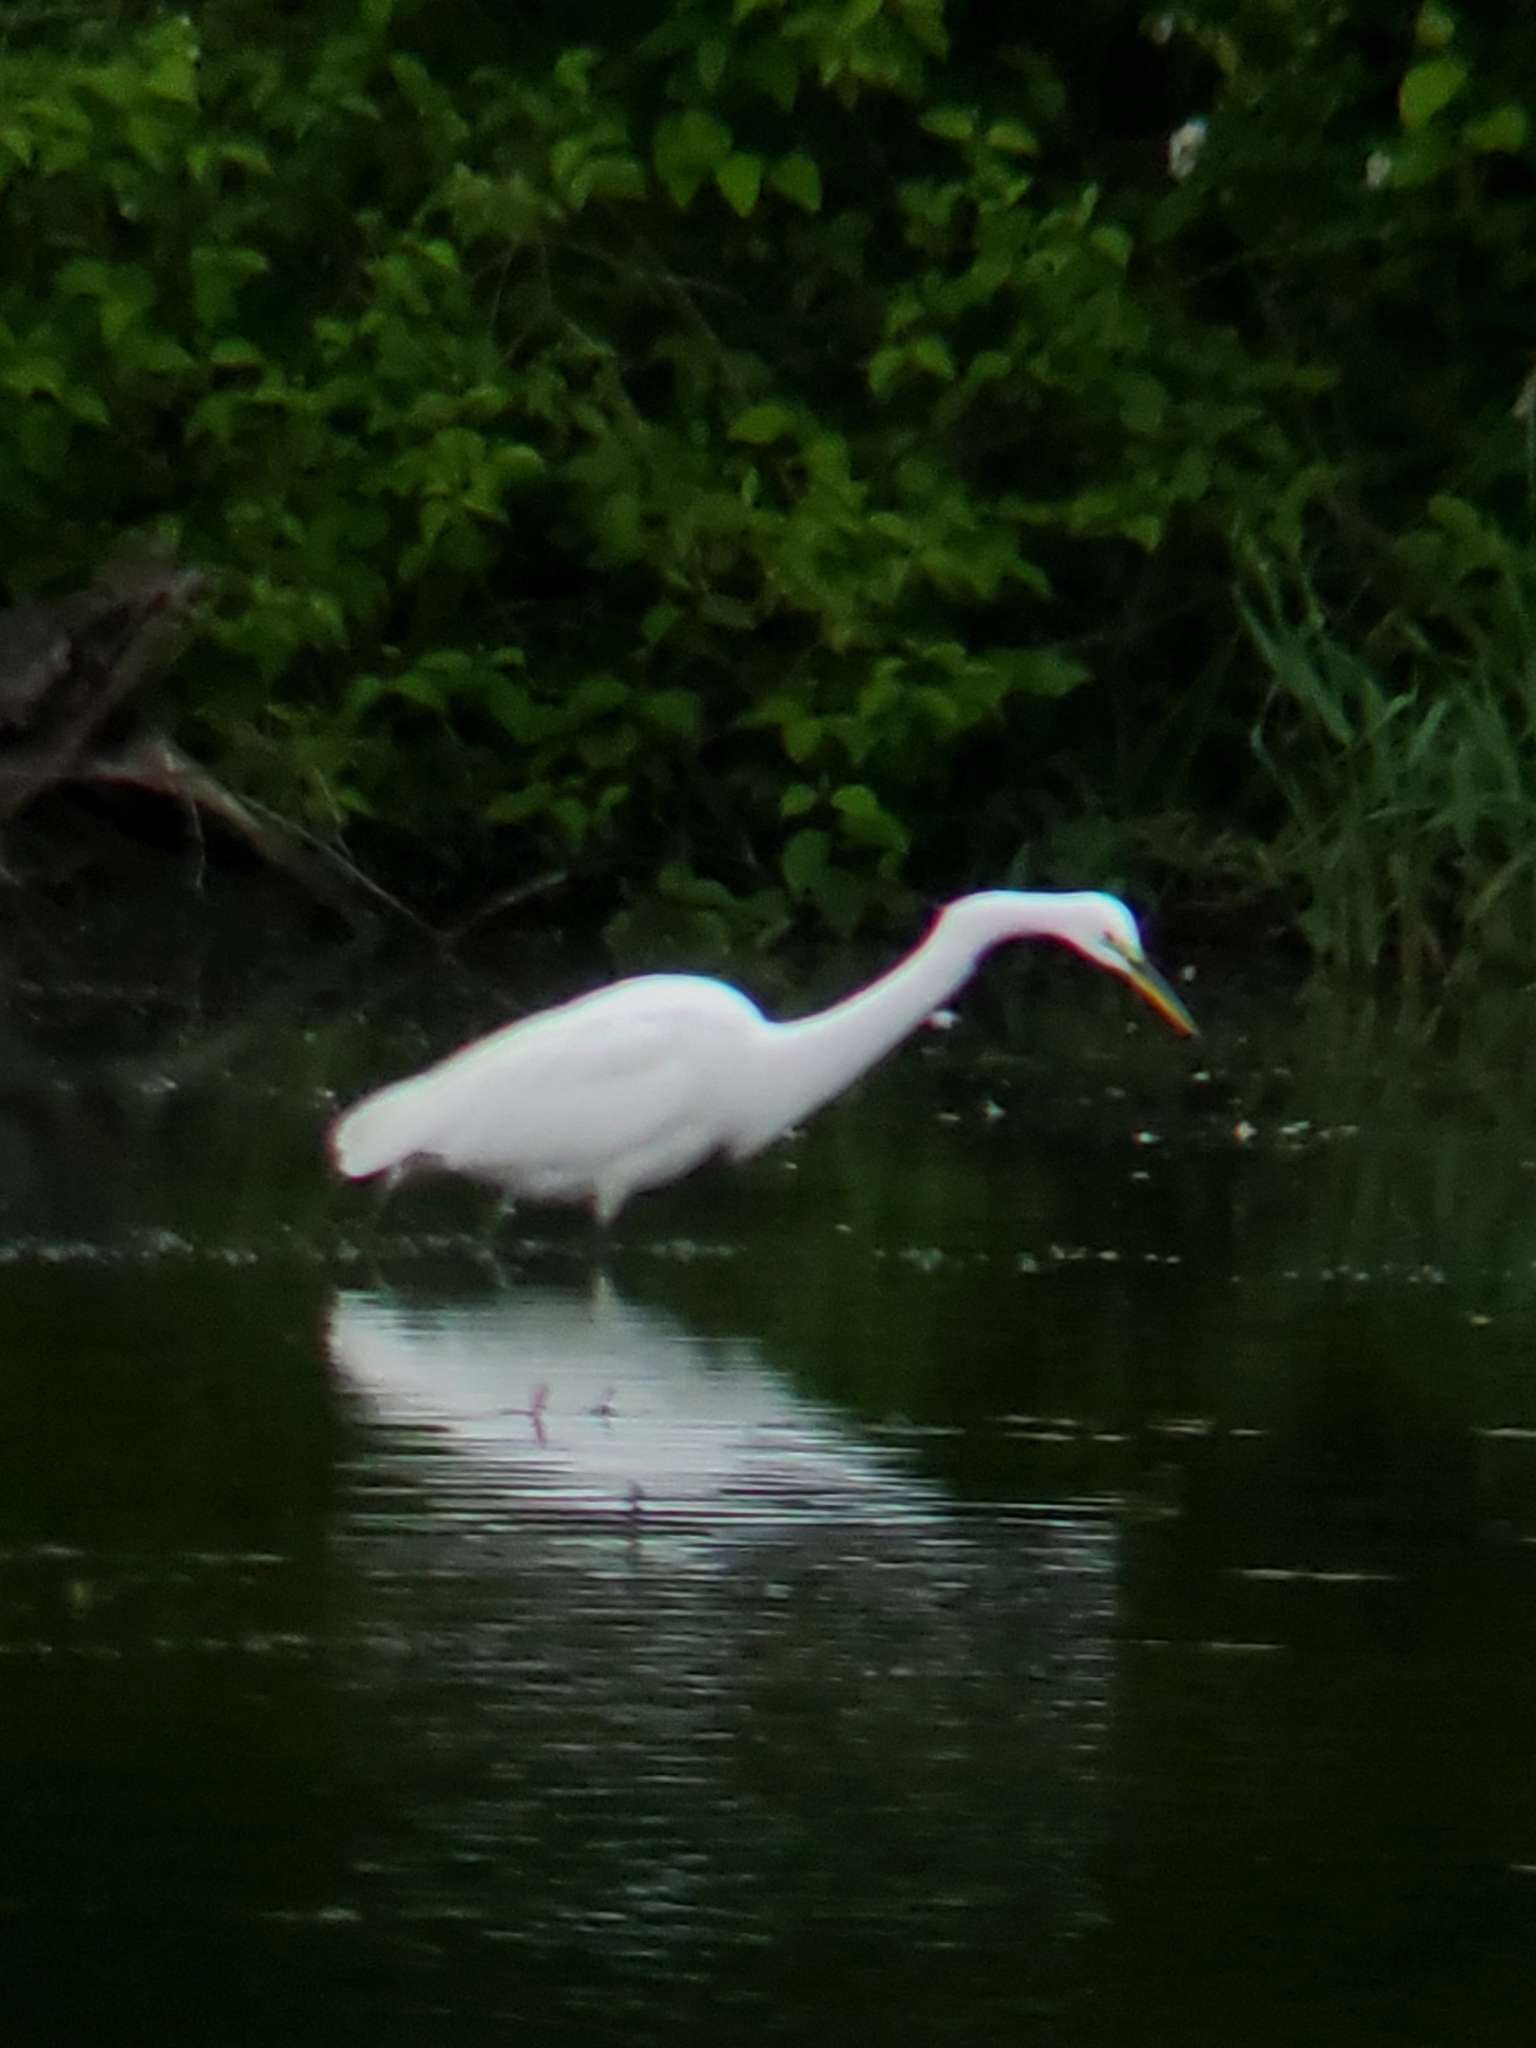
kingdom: Animalia
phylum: Chordata
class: Aves
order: Pelecaniformes
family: Ardeidae
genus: Ardea
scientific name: Ardea alba
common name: Great egret
